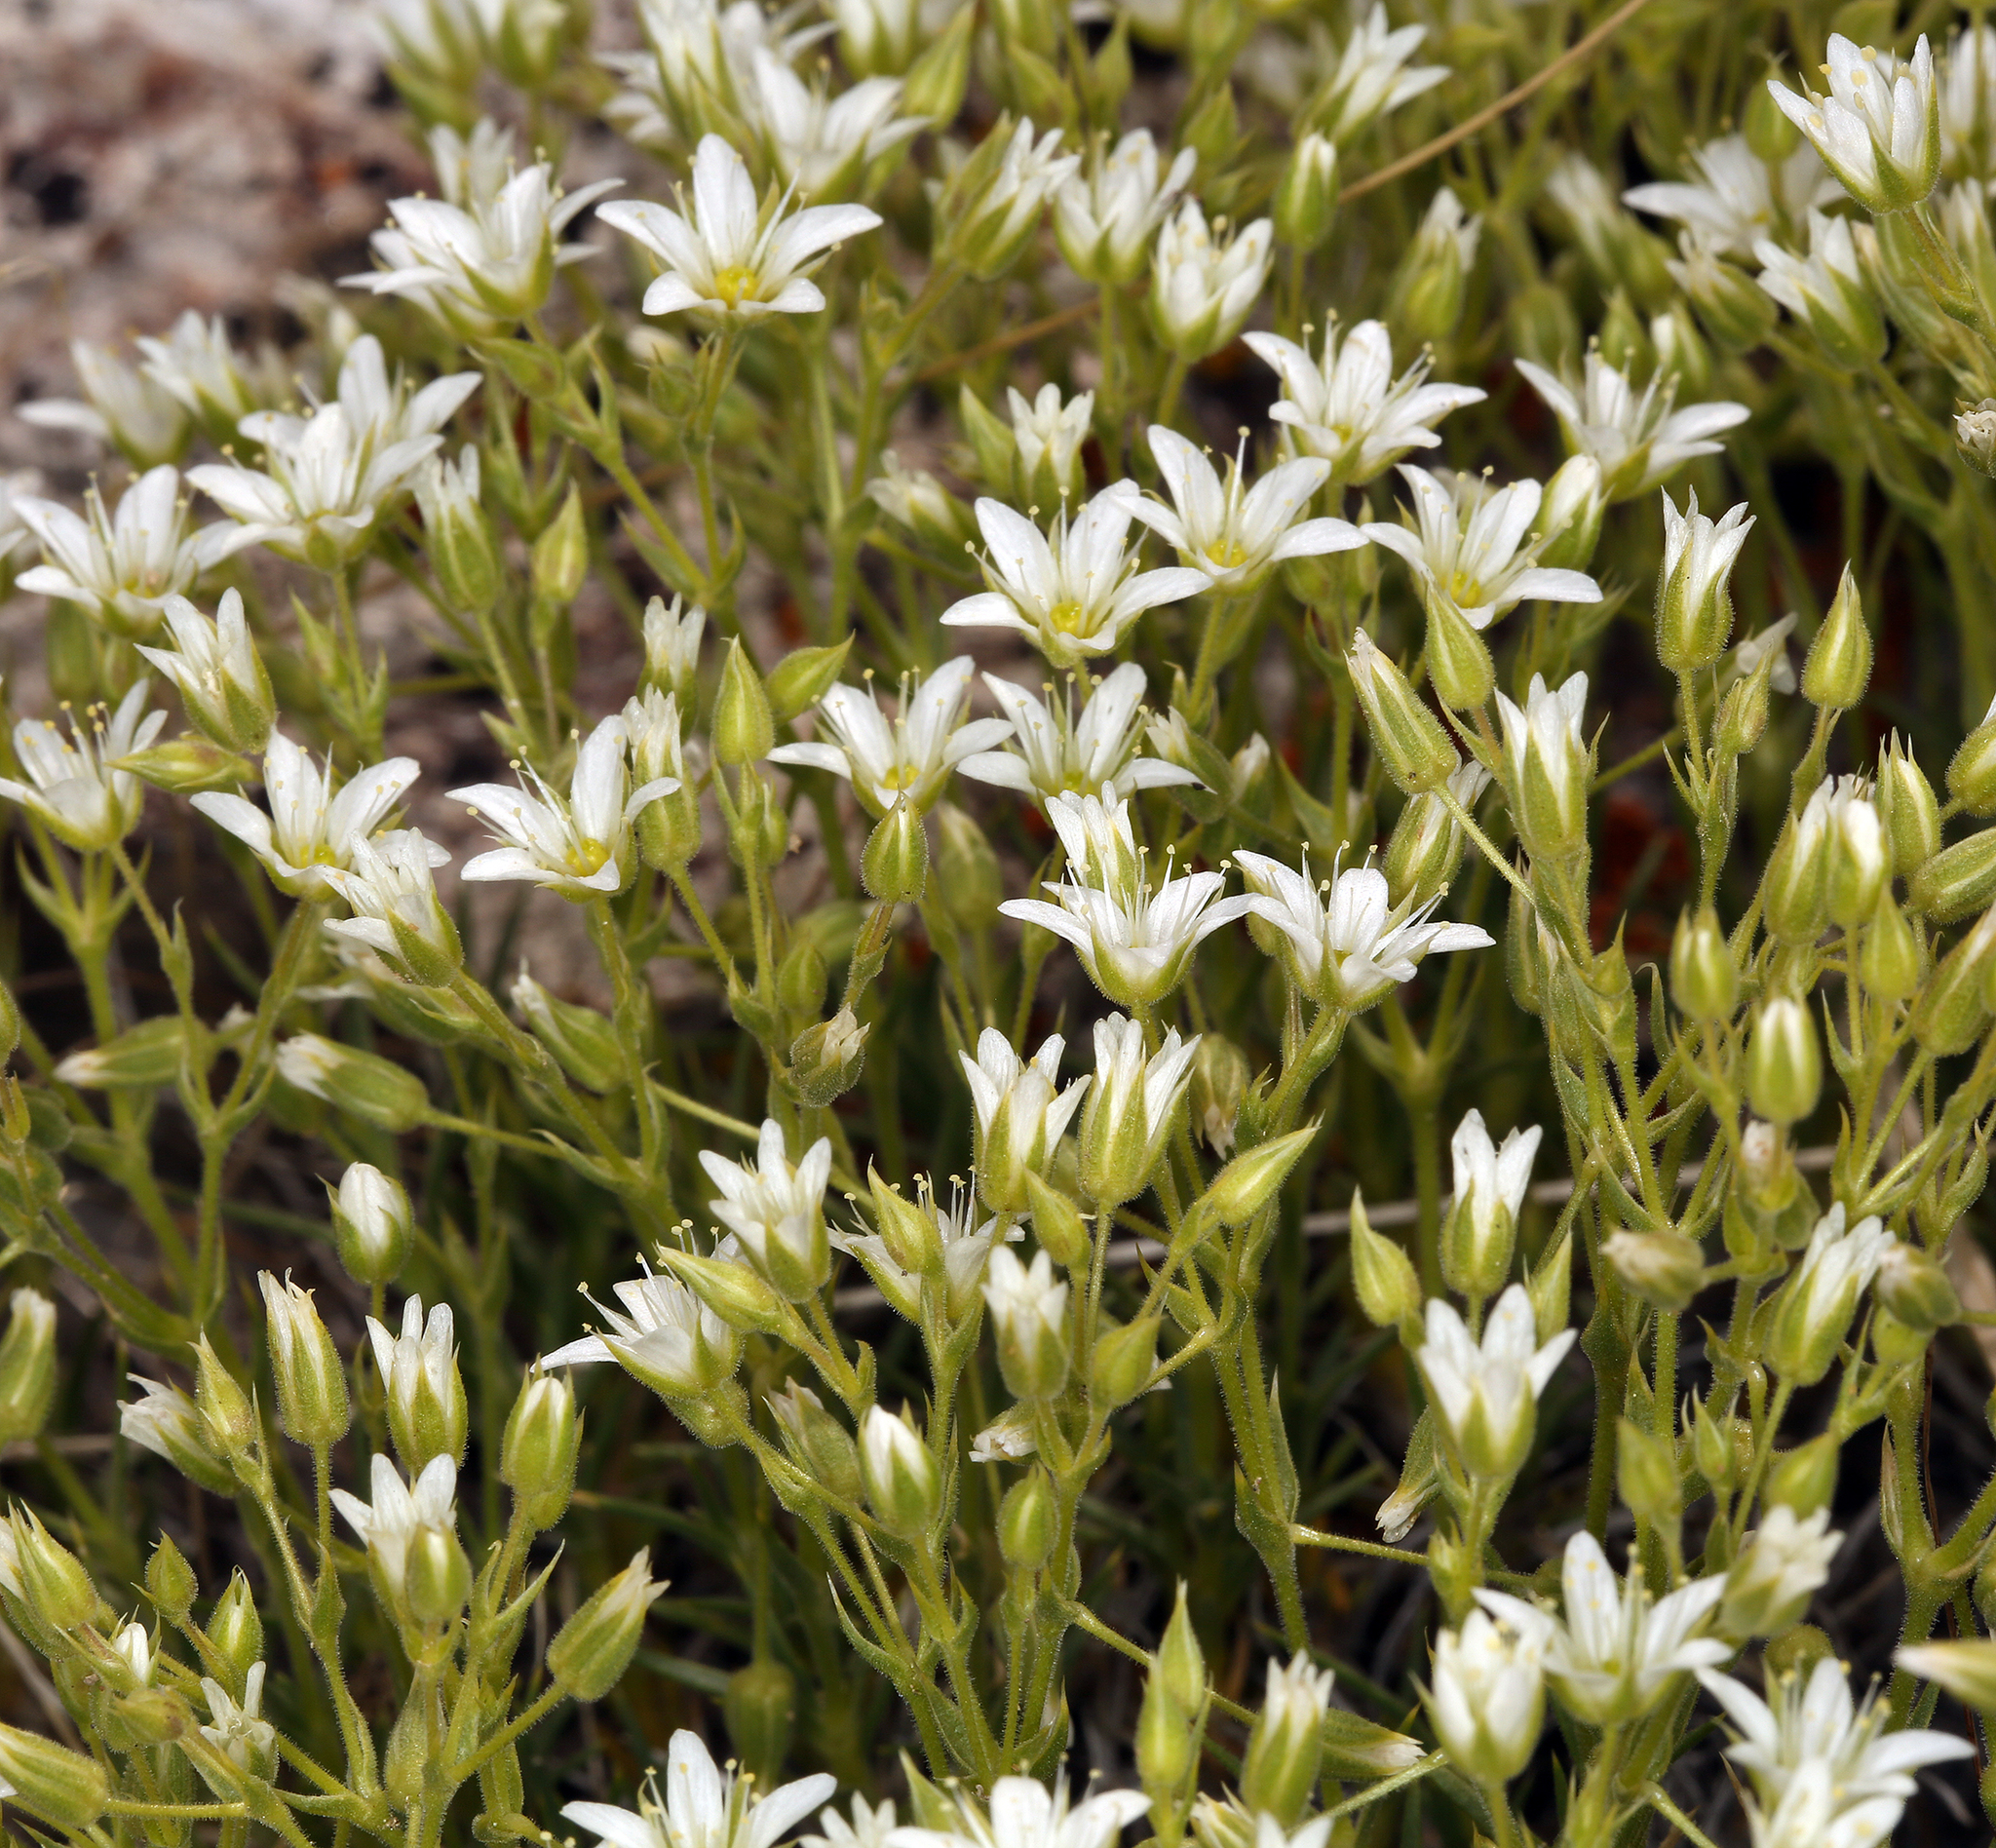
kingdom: Plantae
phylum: Tracheophyta
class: Magnoliopsida
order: Caryophyllales
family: Caryophyllaceae
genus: Sabulina
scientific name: Sabulina nuttallii
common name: Nuttall's stitchwort
